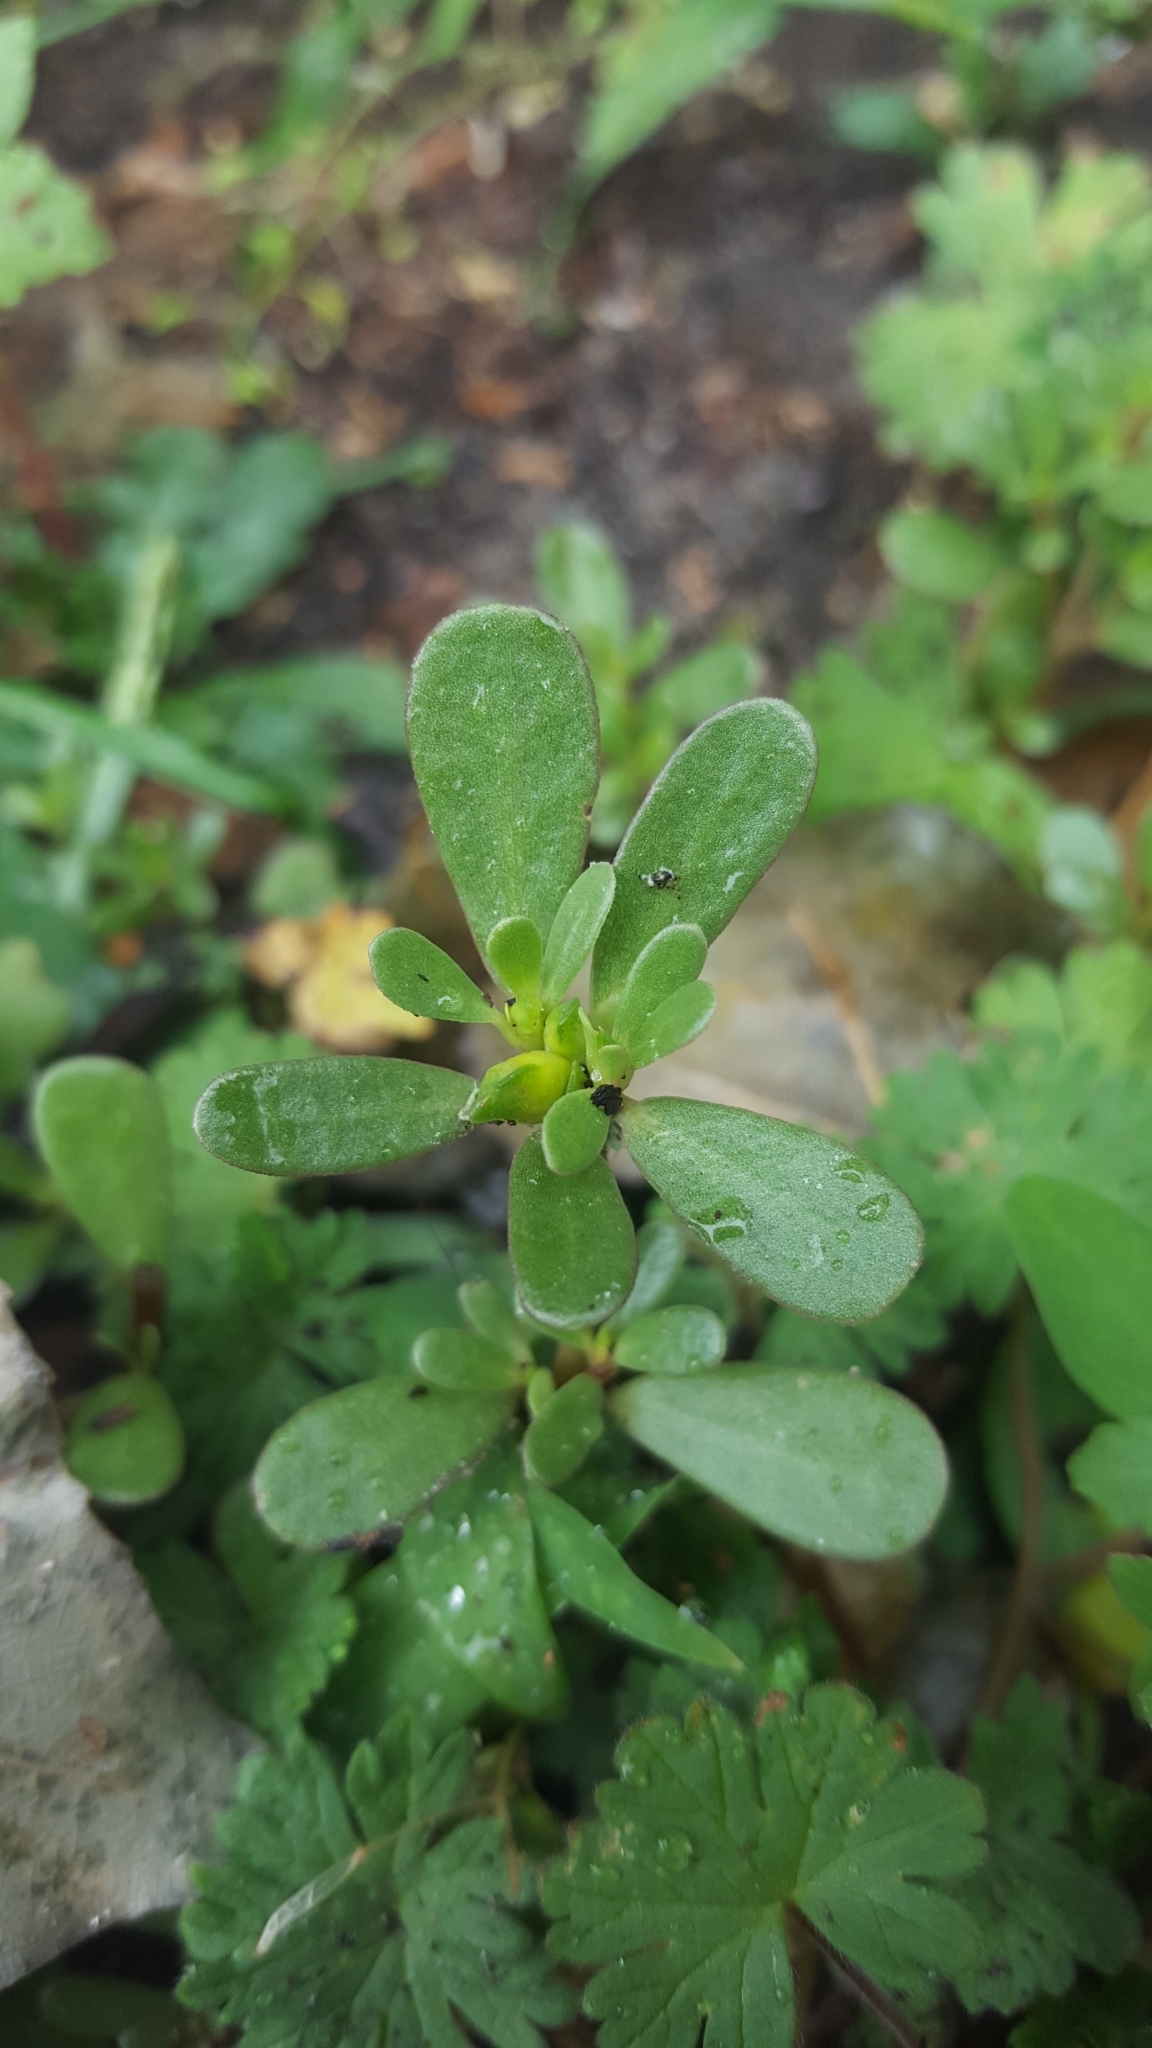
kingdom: Plantae
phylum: Tracheophyta
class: Magnoliopsida
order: Caryophyllales
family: Portulacaceae
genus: Portulaca
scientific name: Portulaca oleracea
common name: Common purslane
